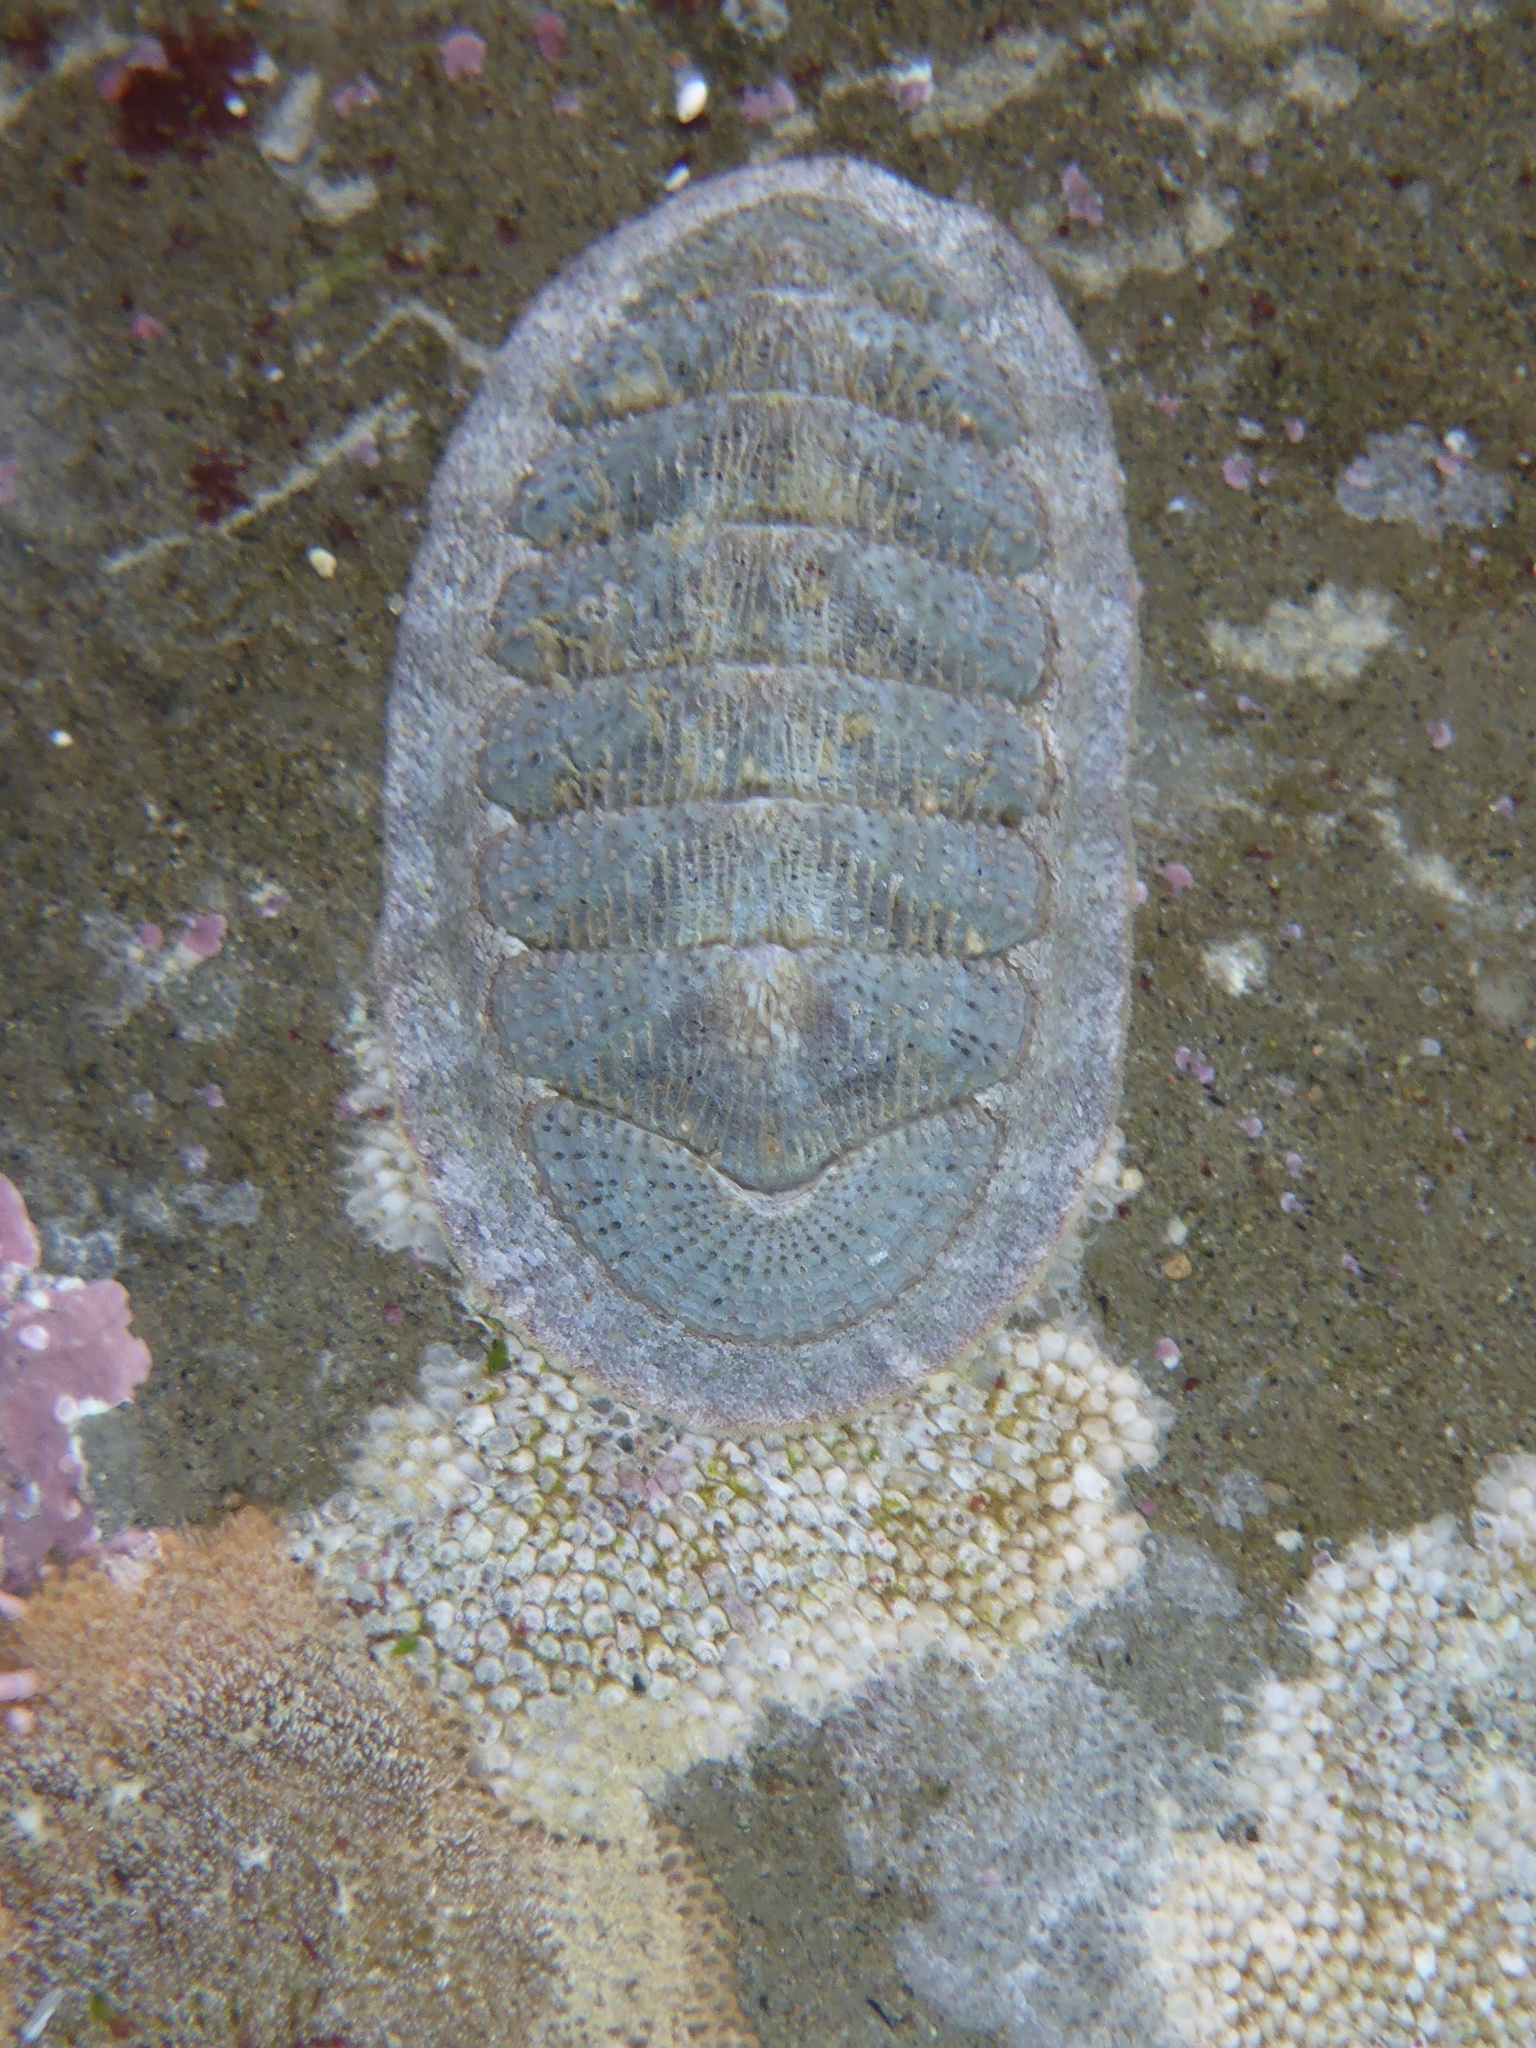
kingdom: Animalia
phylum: Mollusca
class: Polyplacophora
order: Chitonida
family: Ischnochitonidae
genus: Lepidozona
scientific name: Lepidozona cooperi
